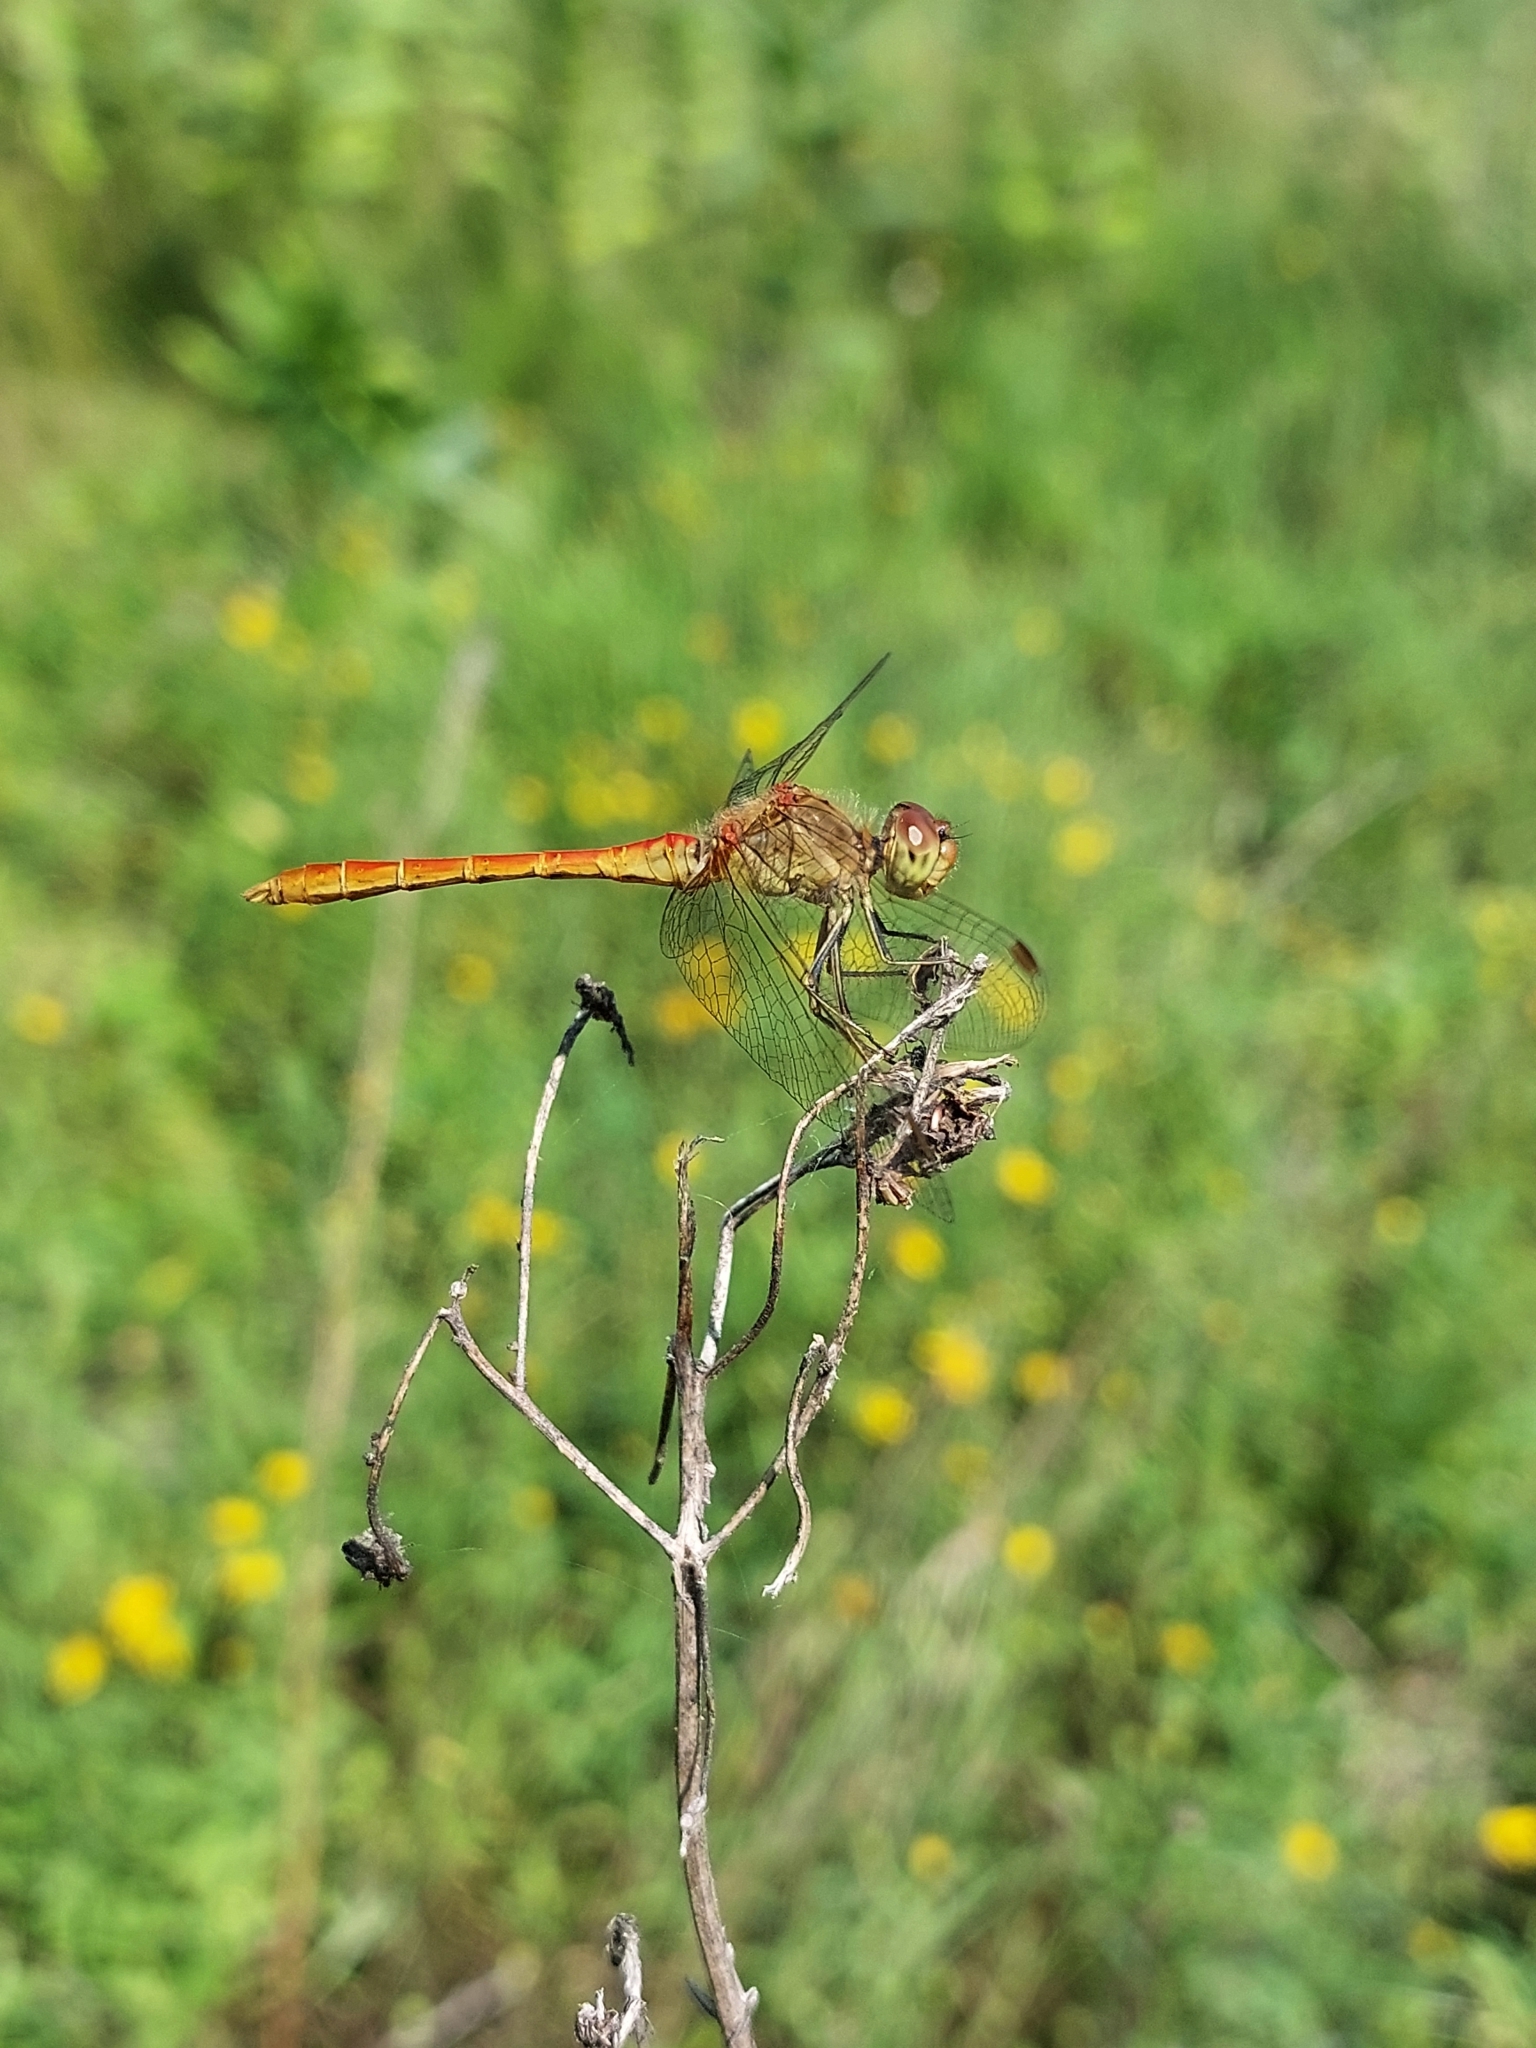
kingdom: Animalia
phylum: Arthropoda
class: Insecta
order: Odonata
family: Libellulidae
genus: Sympetrum
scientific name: Sympetrum meridionale
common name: Southern darter
